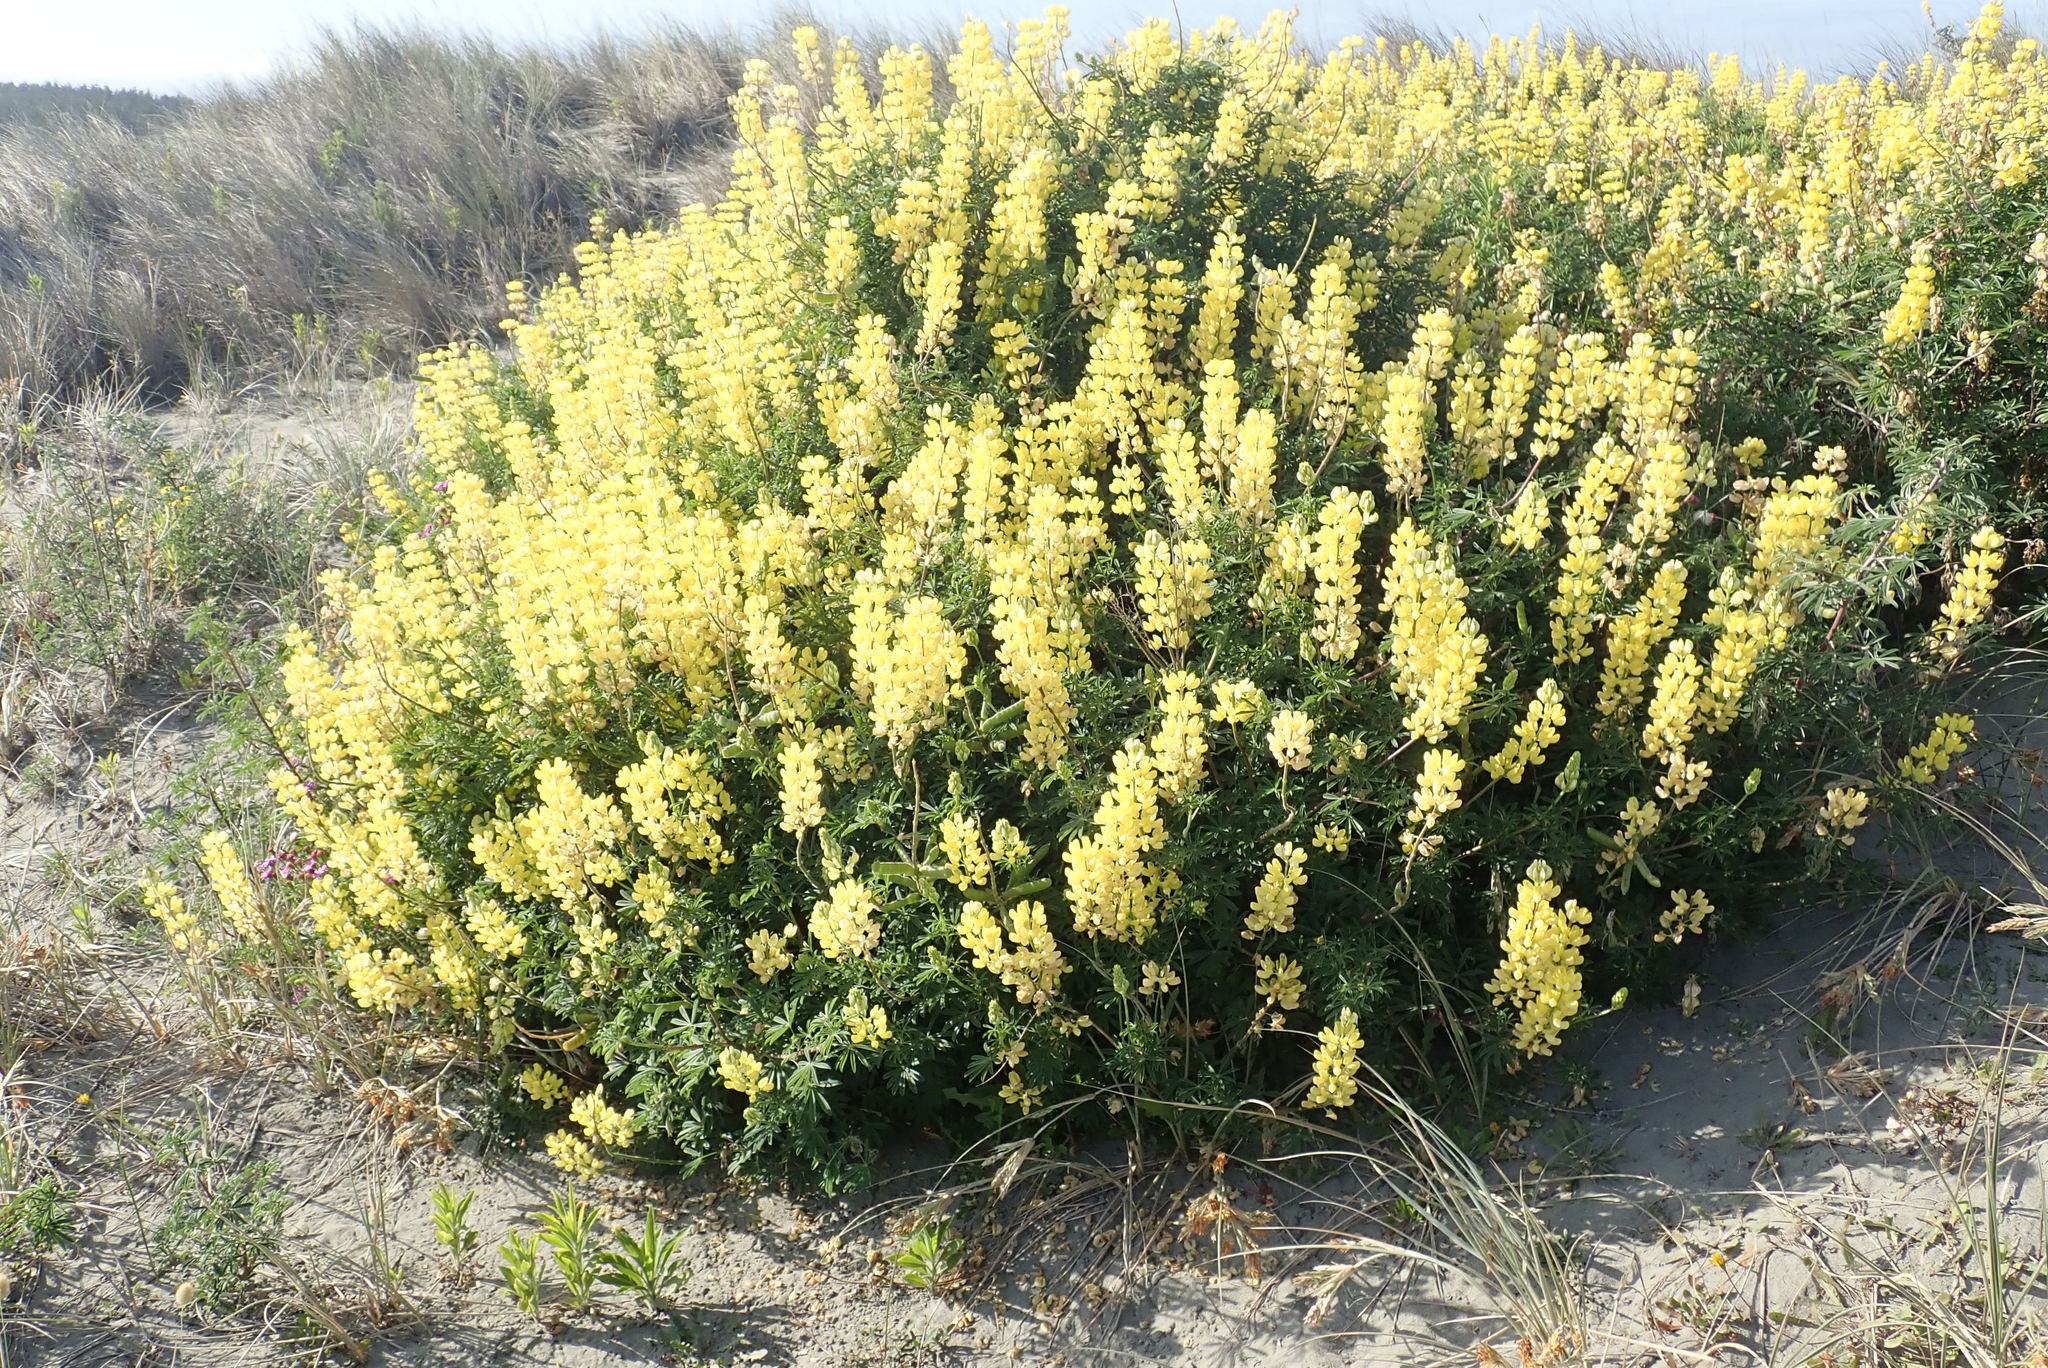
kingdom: Plantae
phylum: Tracheophyta
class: Magnoliopsida
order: Fabales
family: Fabaceae
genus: Lupinus
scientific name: Lupinus arboreus
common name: Yellow bush lupine
